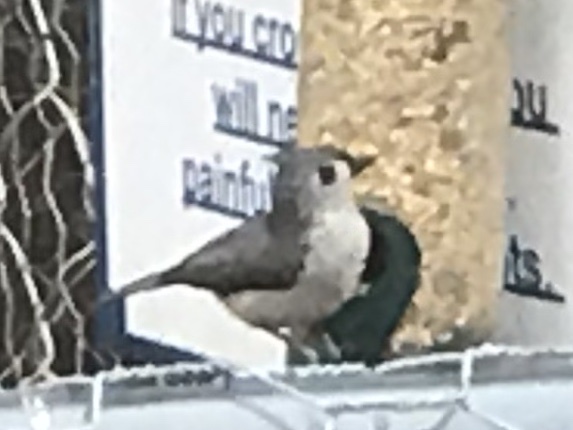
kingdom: Animalia
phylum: Chordata
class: Aves
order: Passeriformes
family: Paridae
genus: Baeolophus
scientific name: Baeolophus bicolor
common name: Tufted titmouse
